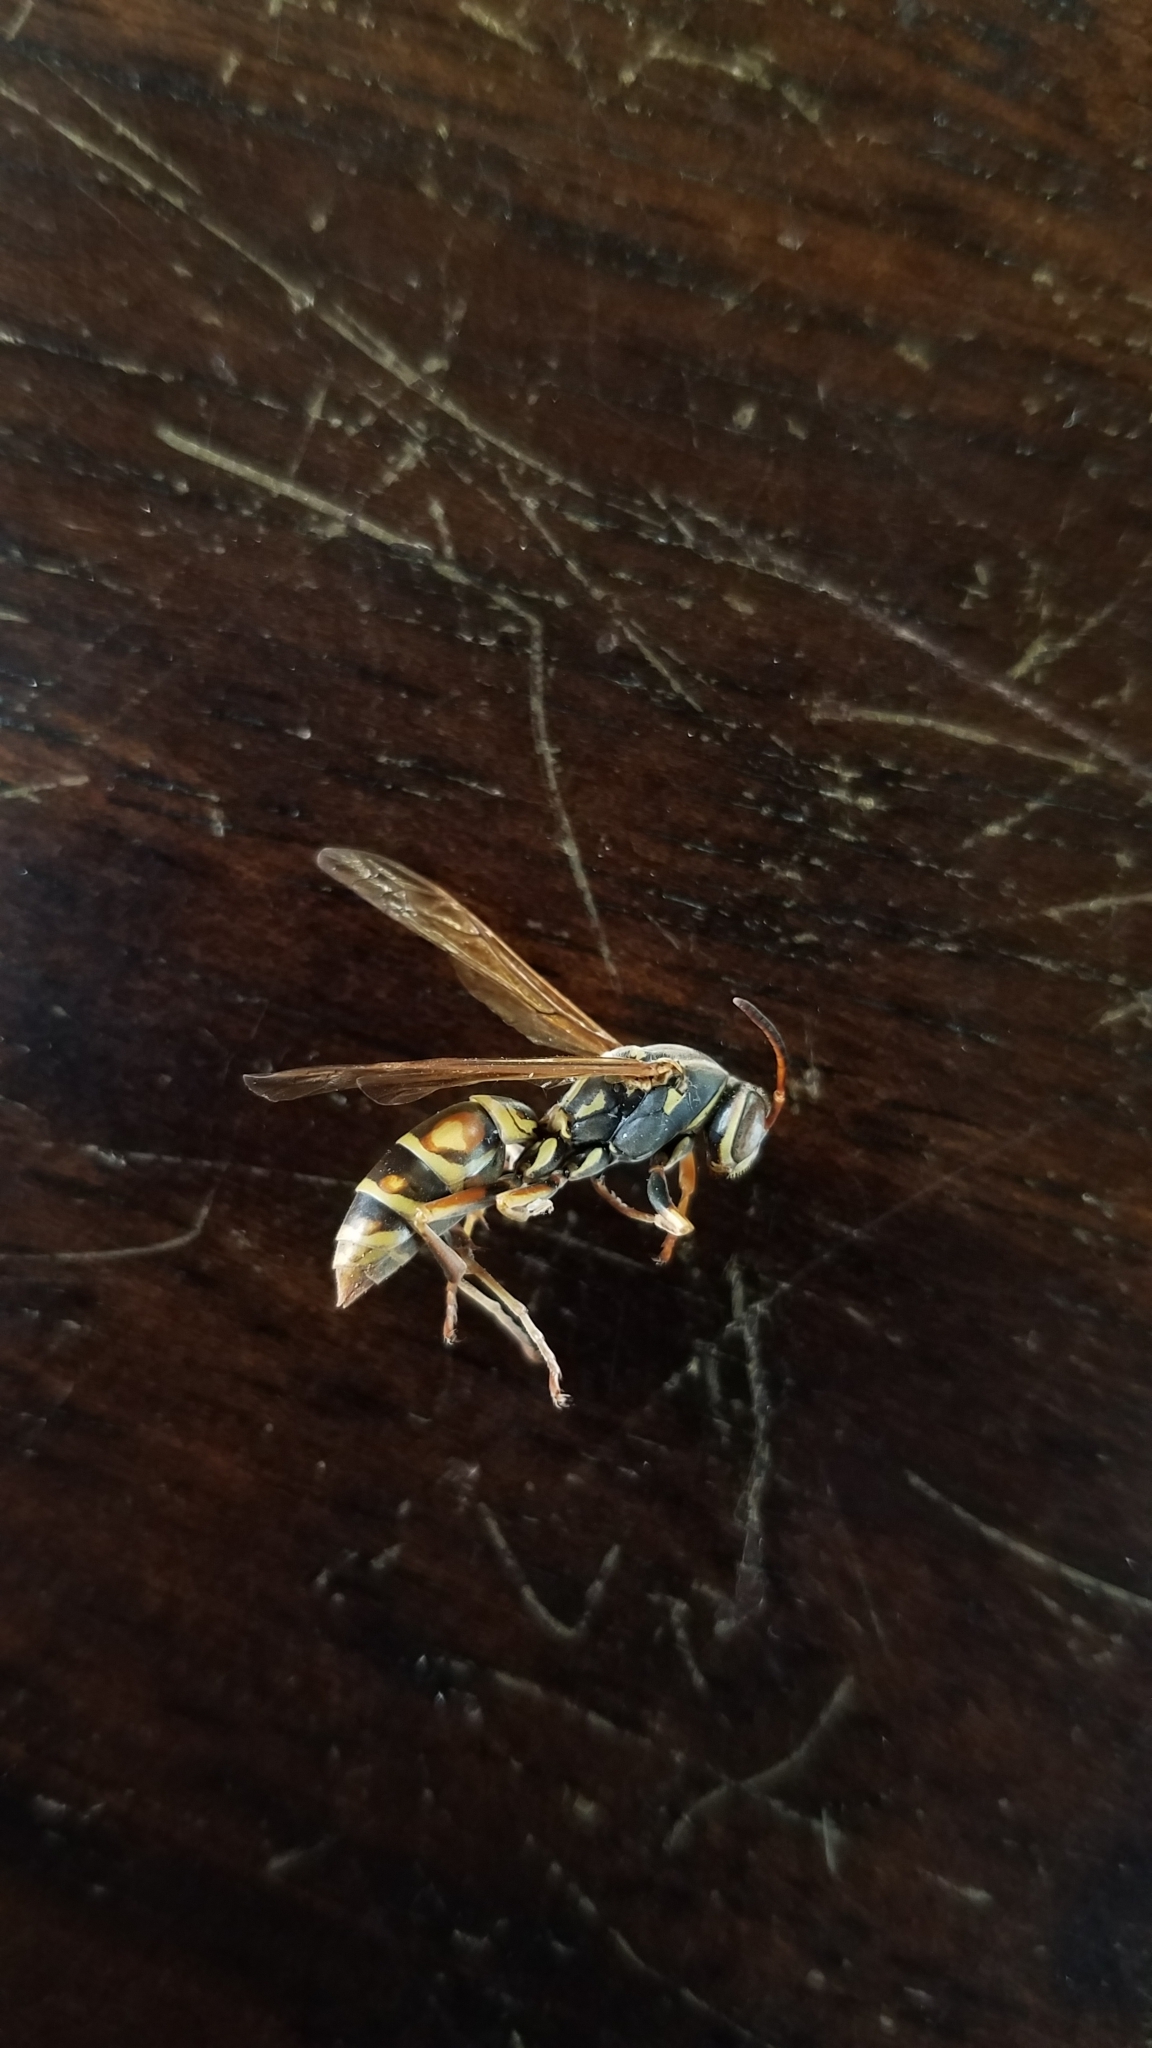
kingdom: Animalia
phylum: Arthropoda
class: Insecta
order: Hymenoptera
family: Eumenidae
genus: Polistes
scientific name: Polistes fuscatus
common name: Dark paper wasp
